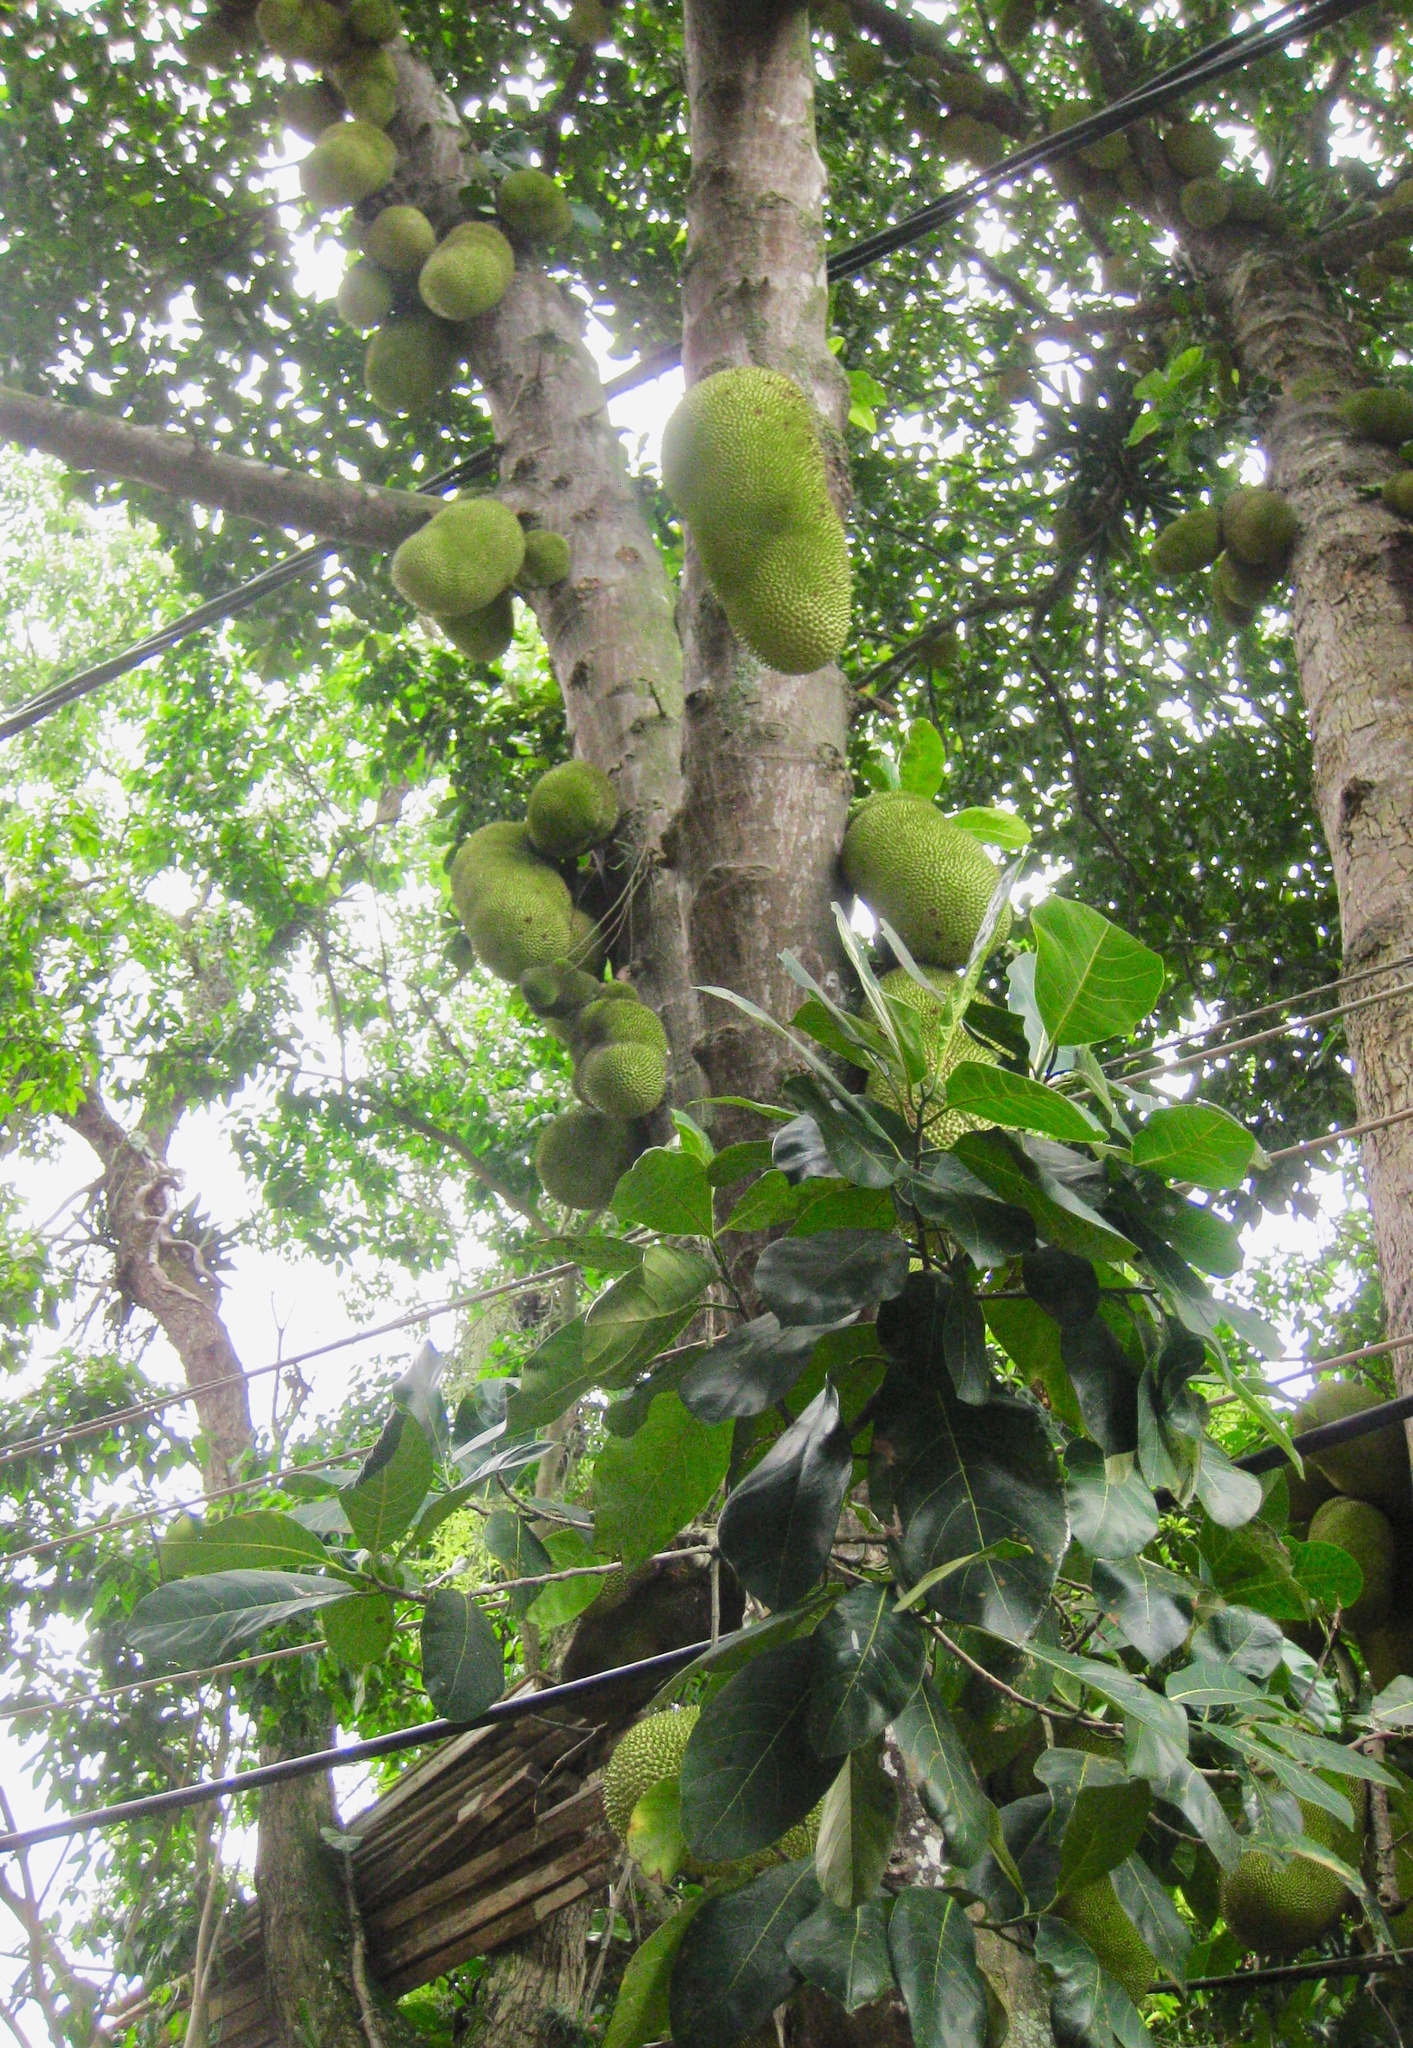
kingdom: Plantae
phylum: Tracheophyta
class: Magnoliopsida
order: Rosales
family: Moraceae
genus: Artocarpus
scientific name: Artocarpus heterophyllus
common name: Jackfruit
